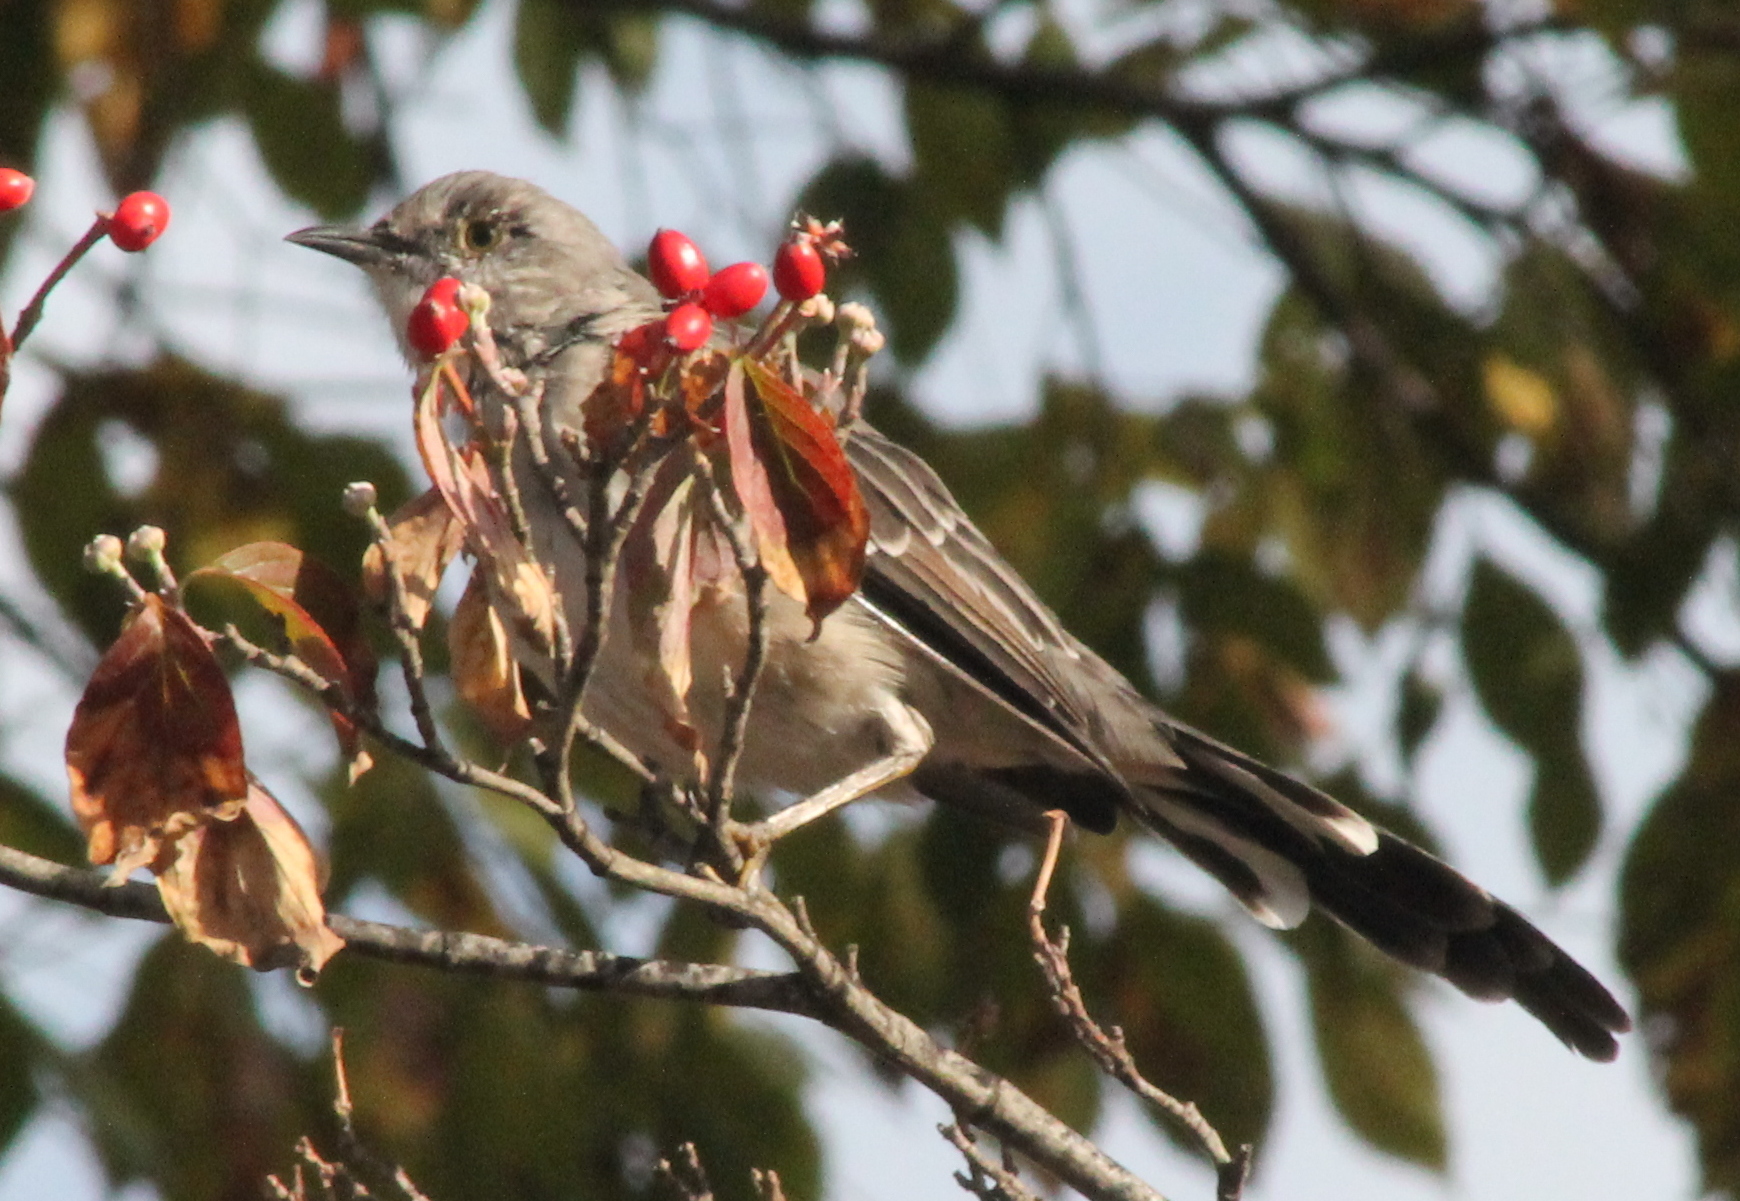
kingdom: Animalia
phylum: Chordata
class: Aves
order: Passeriformes
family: Mimidae
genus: Mimus
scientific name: Mimus polyglottos
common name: Northern mockingbird
